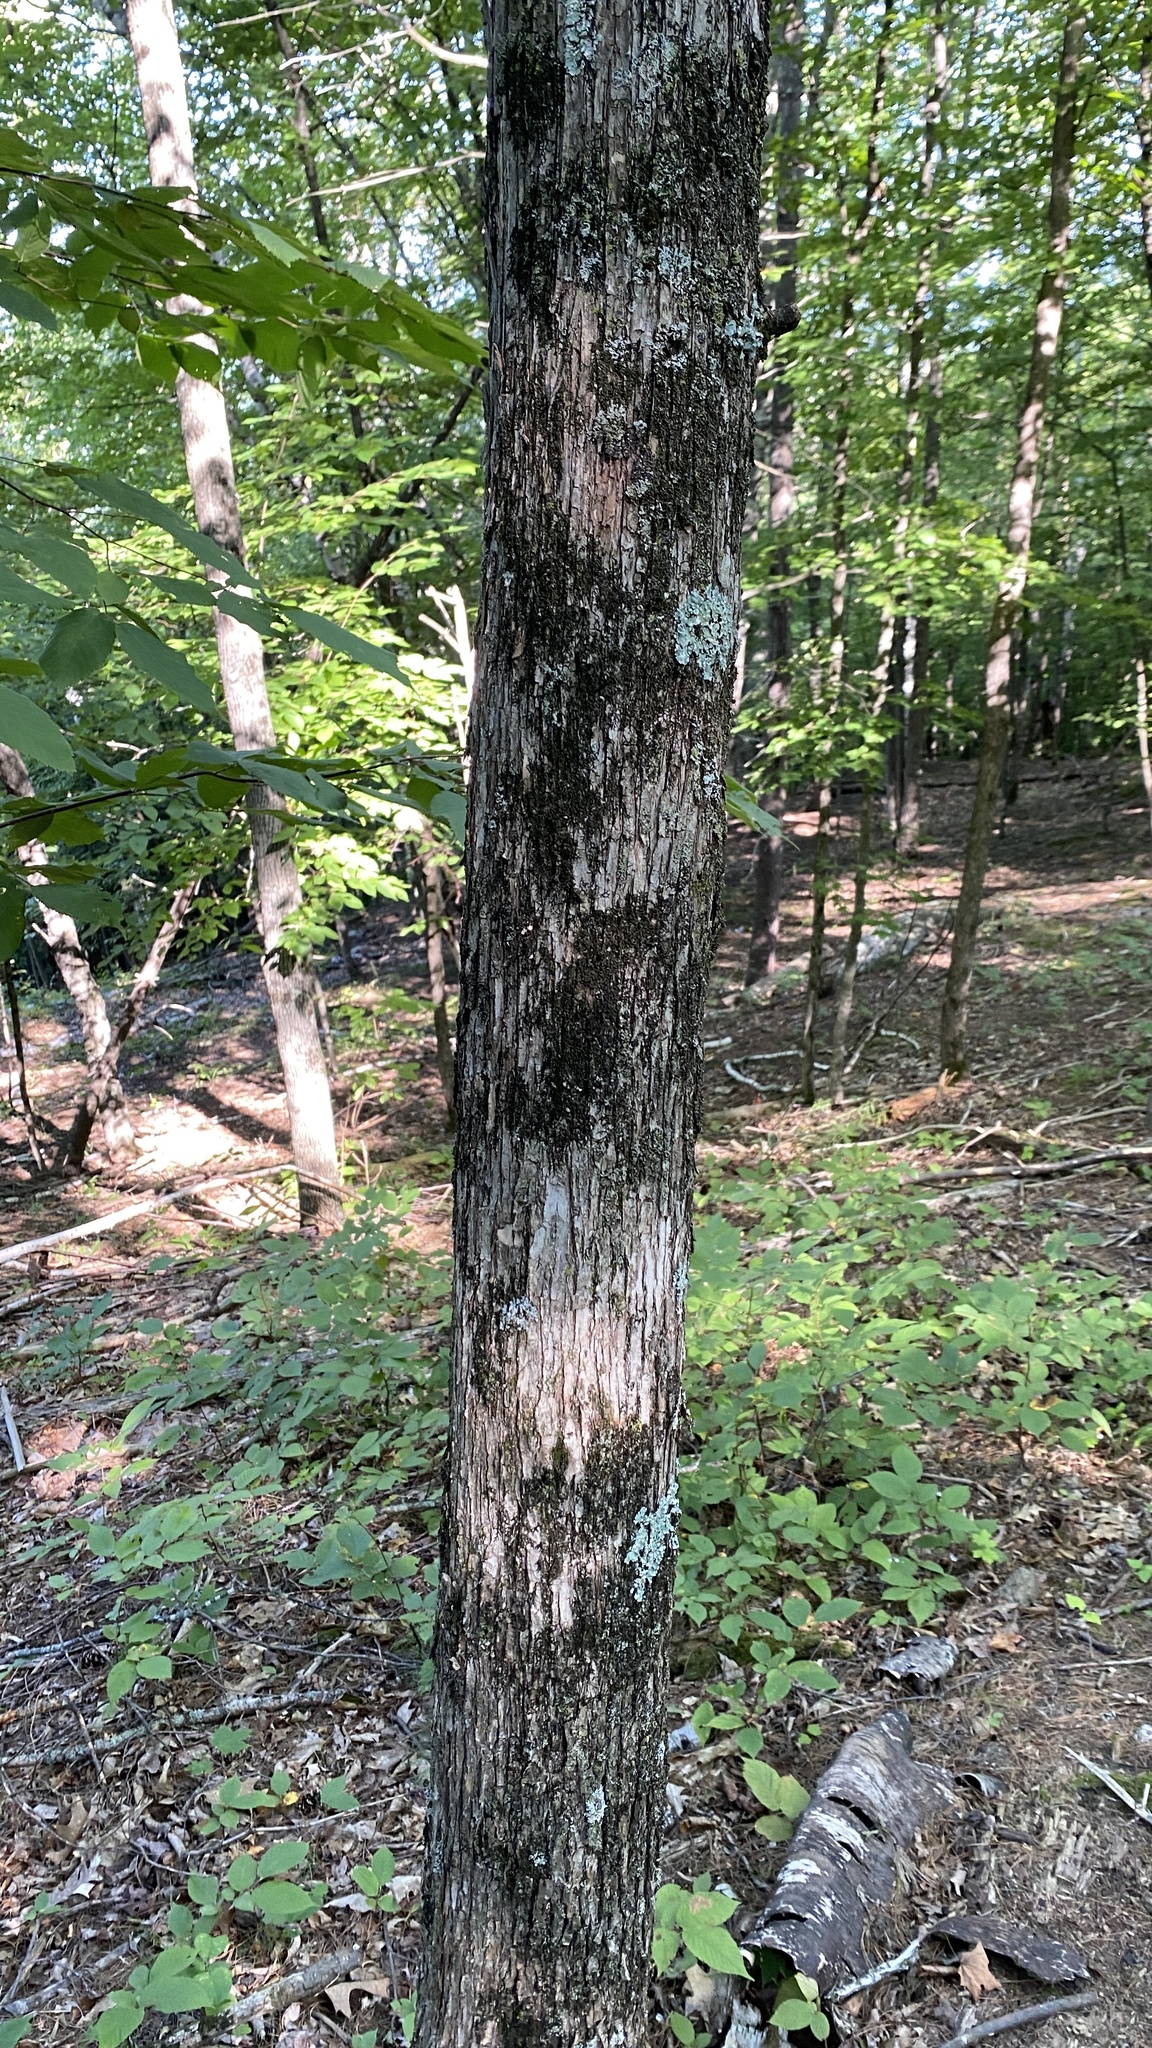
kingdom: Plantae
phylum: Tracheophyta
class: Magnoliopsida
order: Fagales
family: Betulaceae
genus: Ostrya
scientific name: Ostrya virginiana
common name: Ironwood
